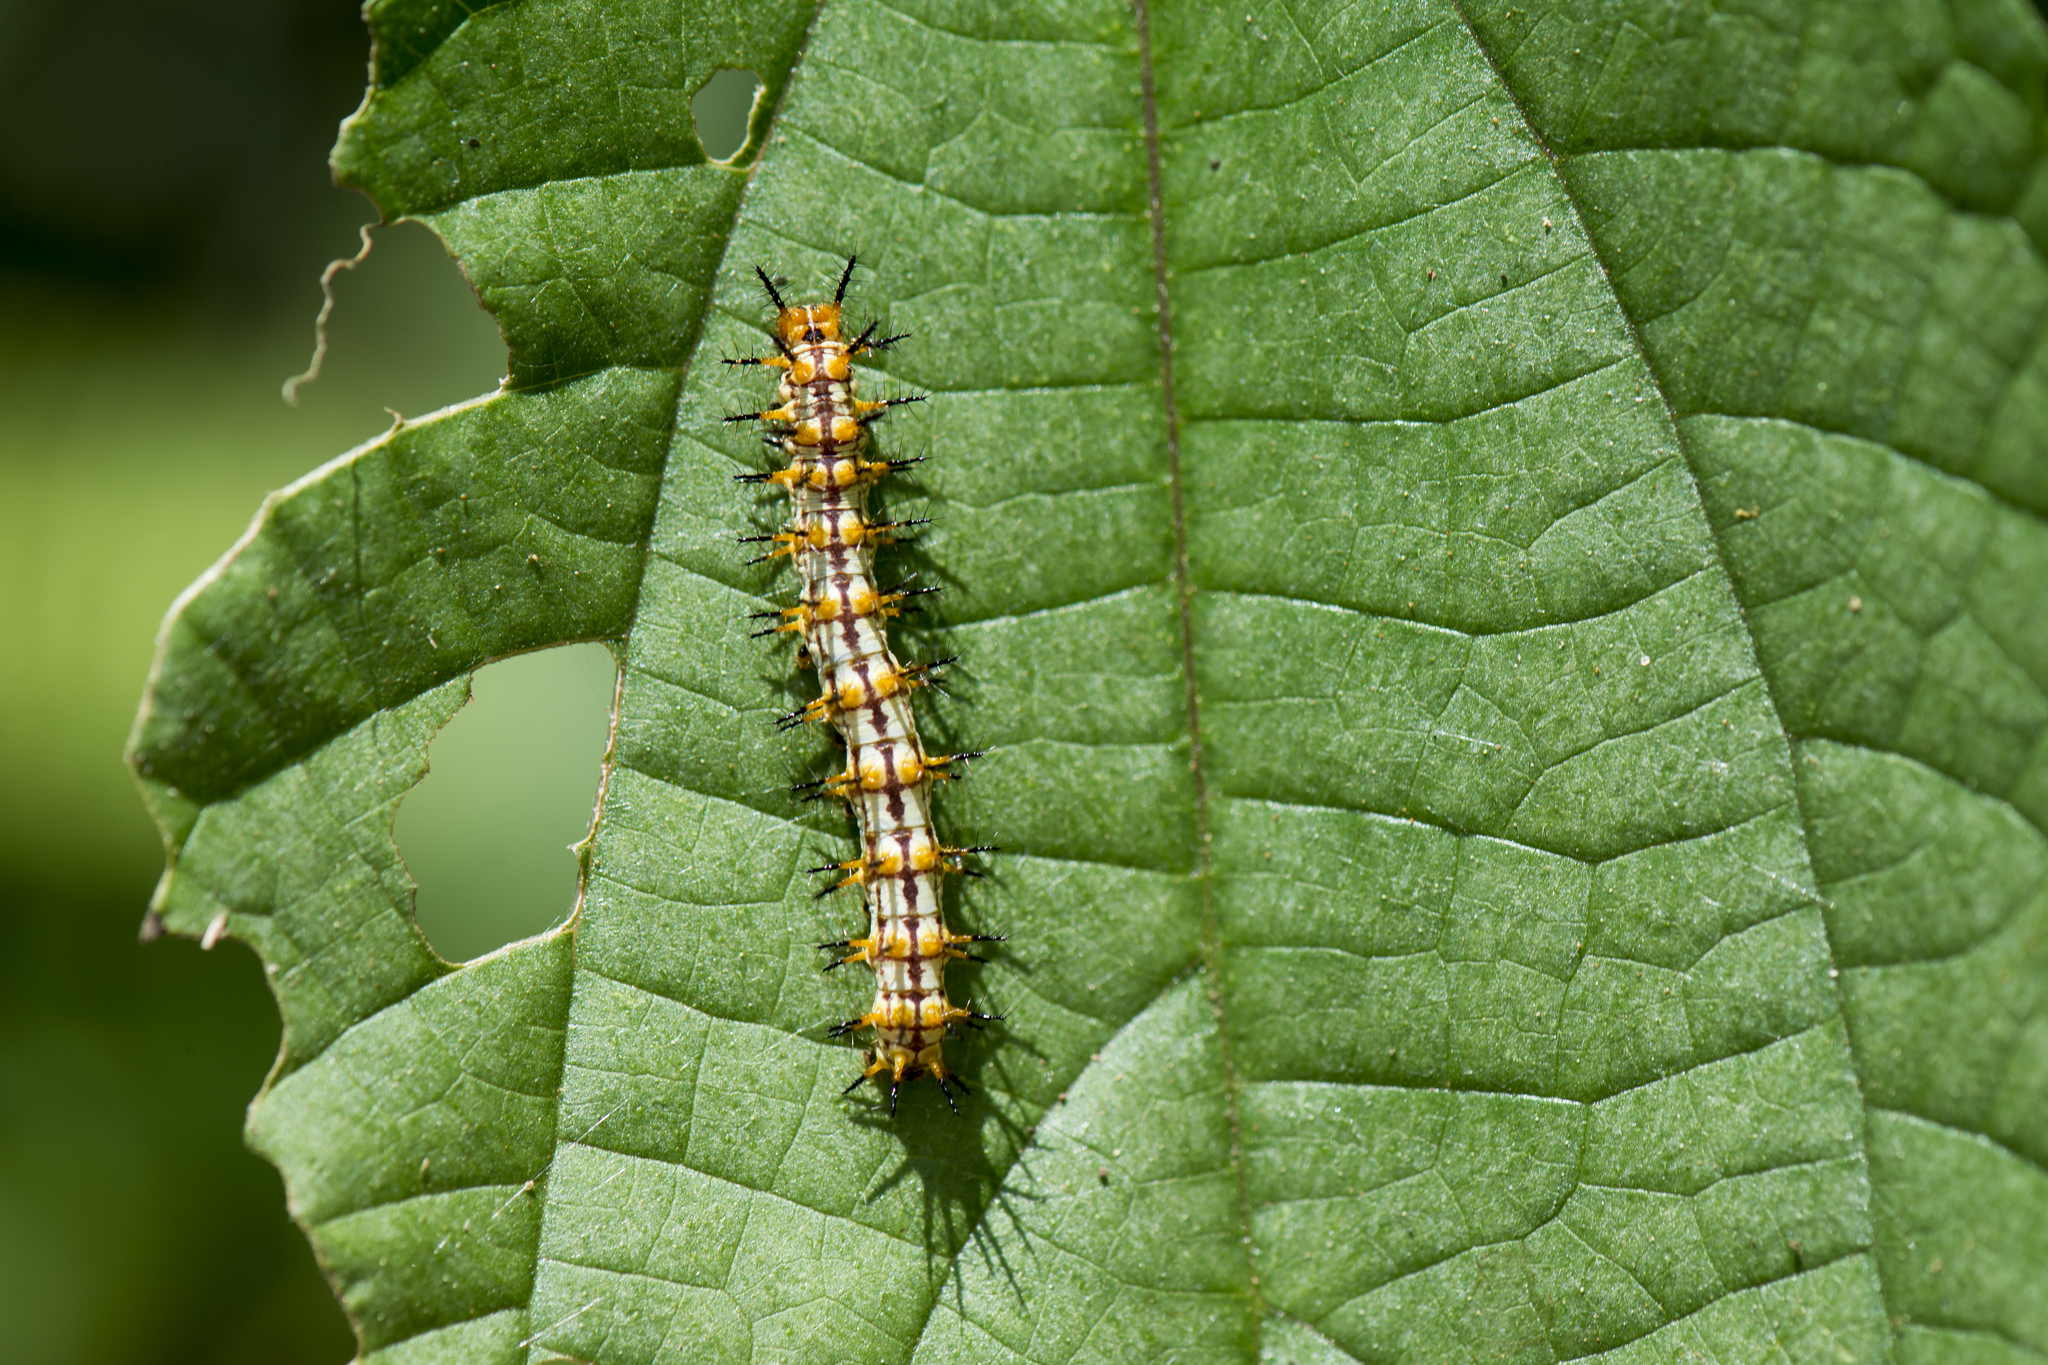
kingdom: Animalia
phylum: Arthropoda
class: Insecta
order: Lepidoptera
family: Nymphalidae
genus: Acraea
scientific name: Acraea Telchinia issoria
